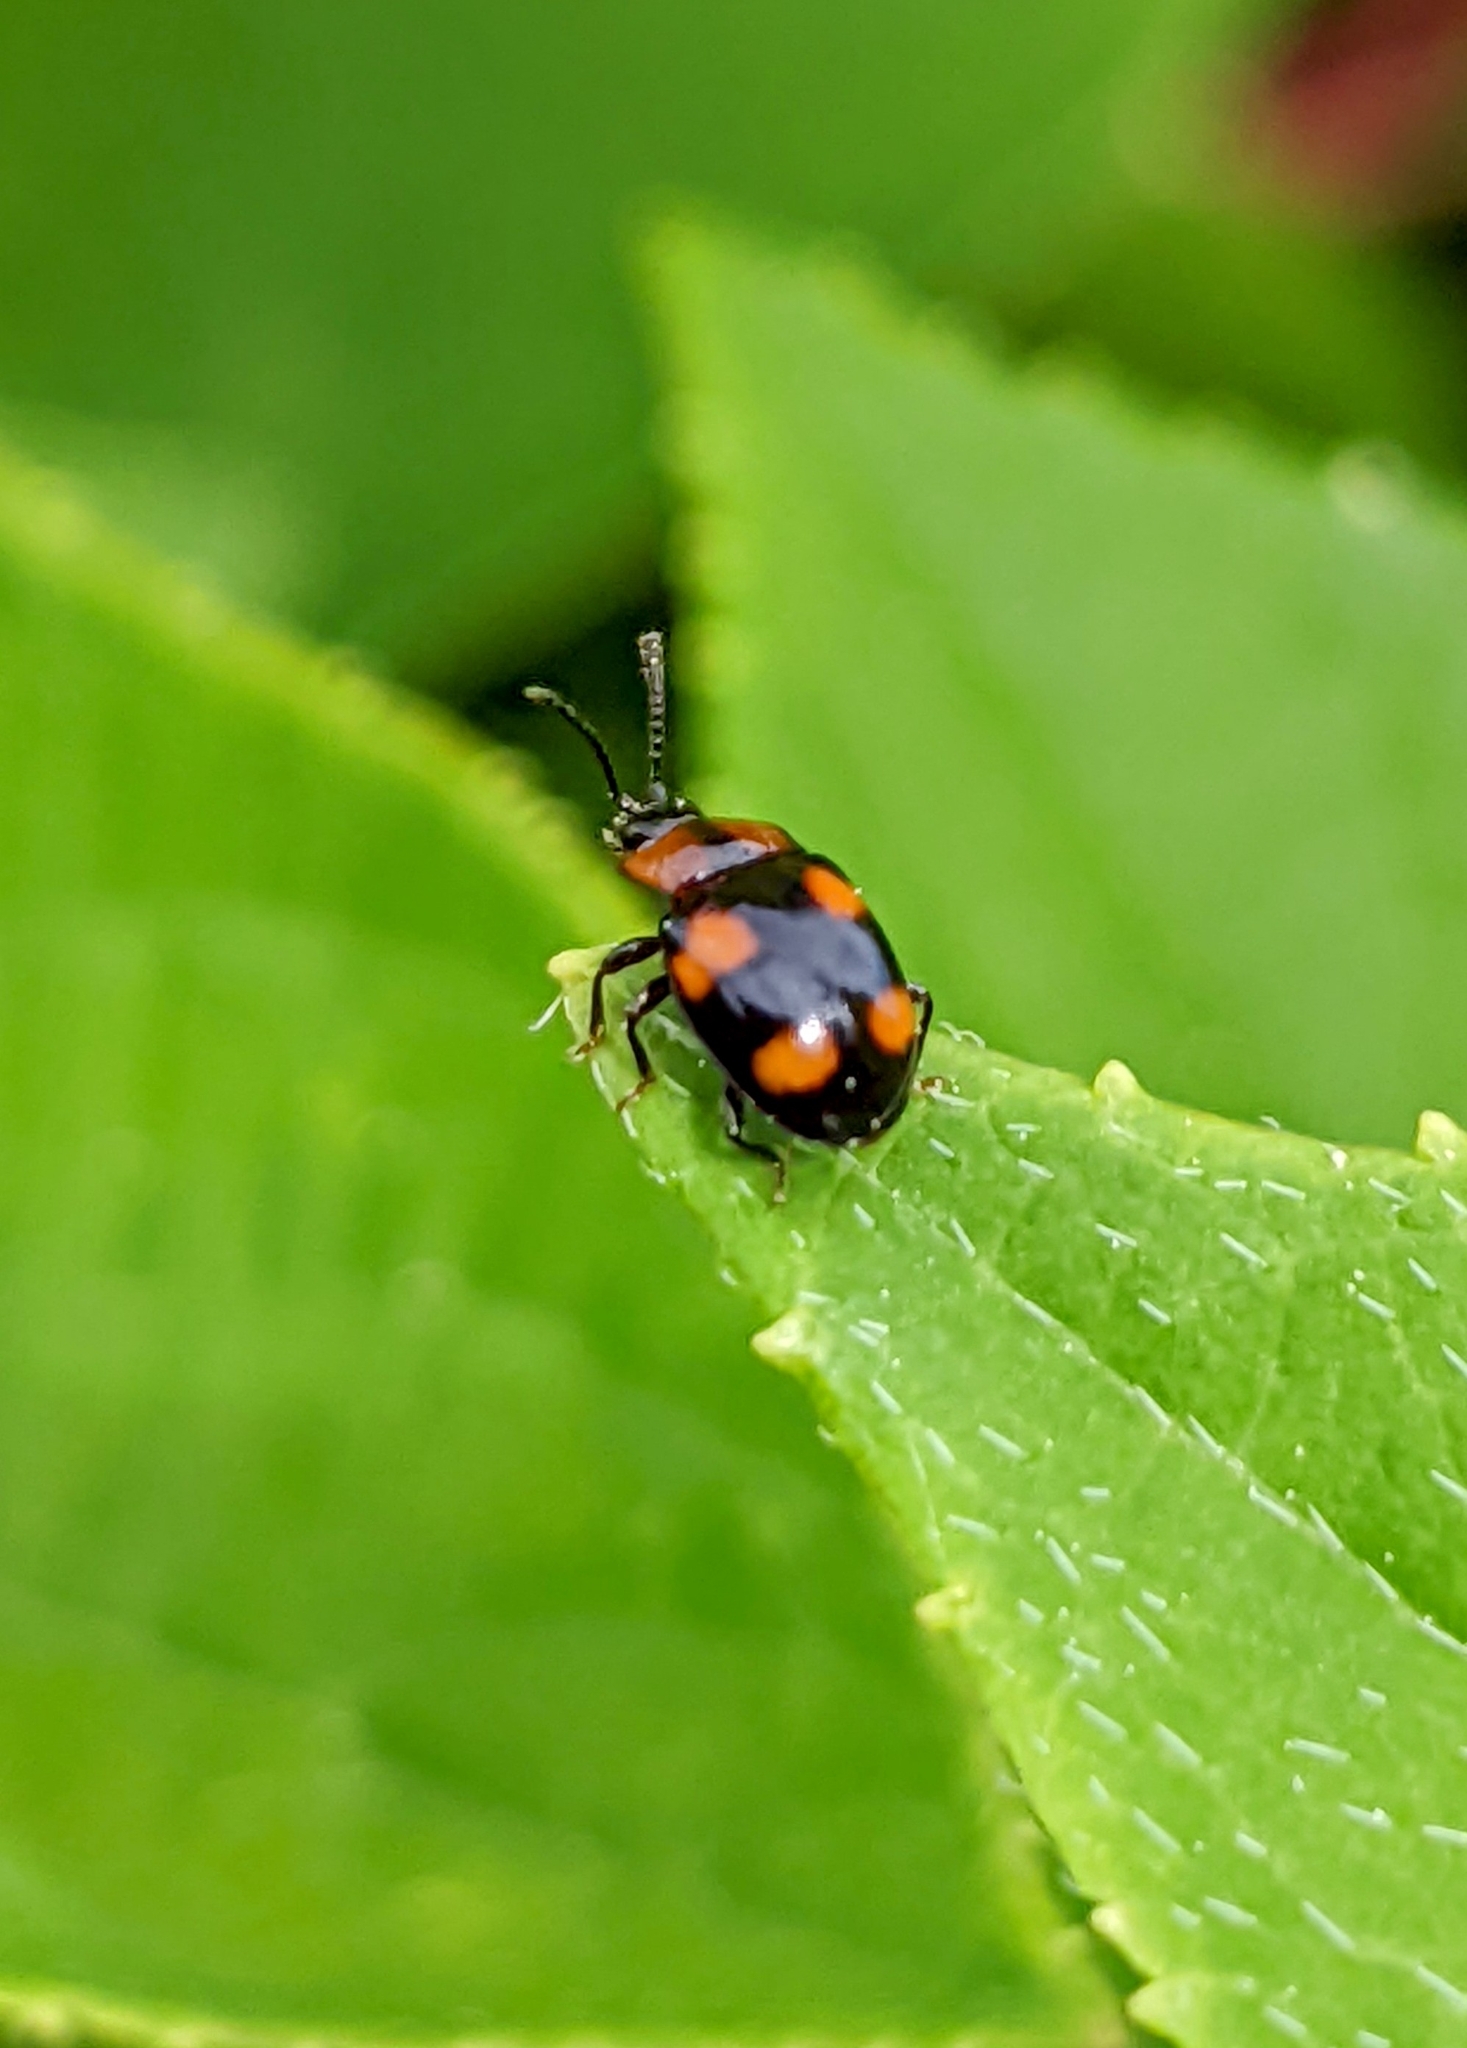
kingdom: Animalia
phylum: Arthropoda
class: Insecta
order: Coleoptera
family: Endomychidae
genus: Mycetina
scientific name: Mycetina perpulchra
